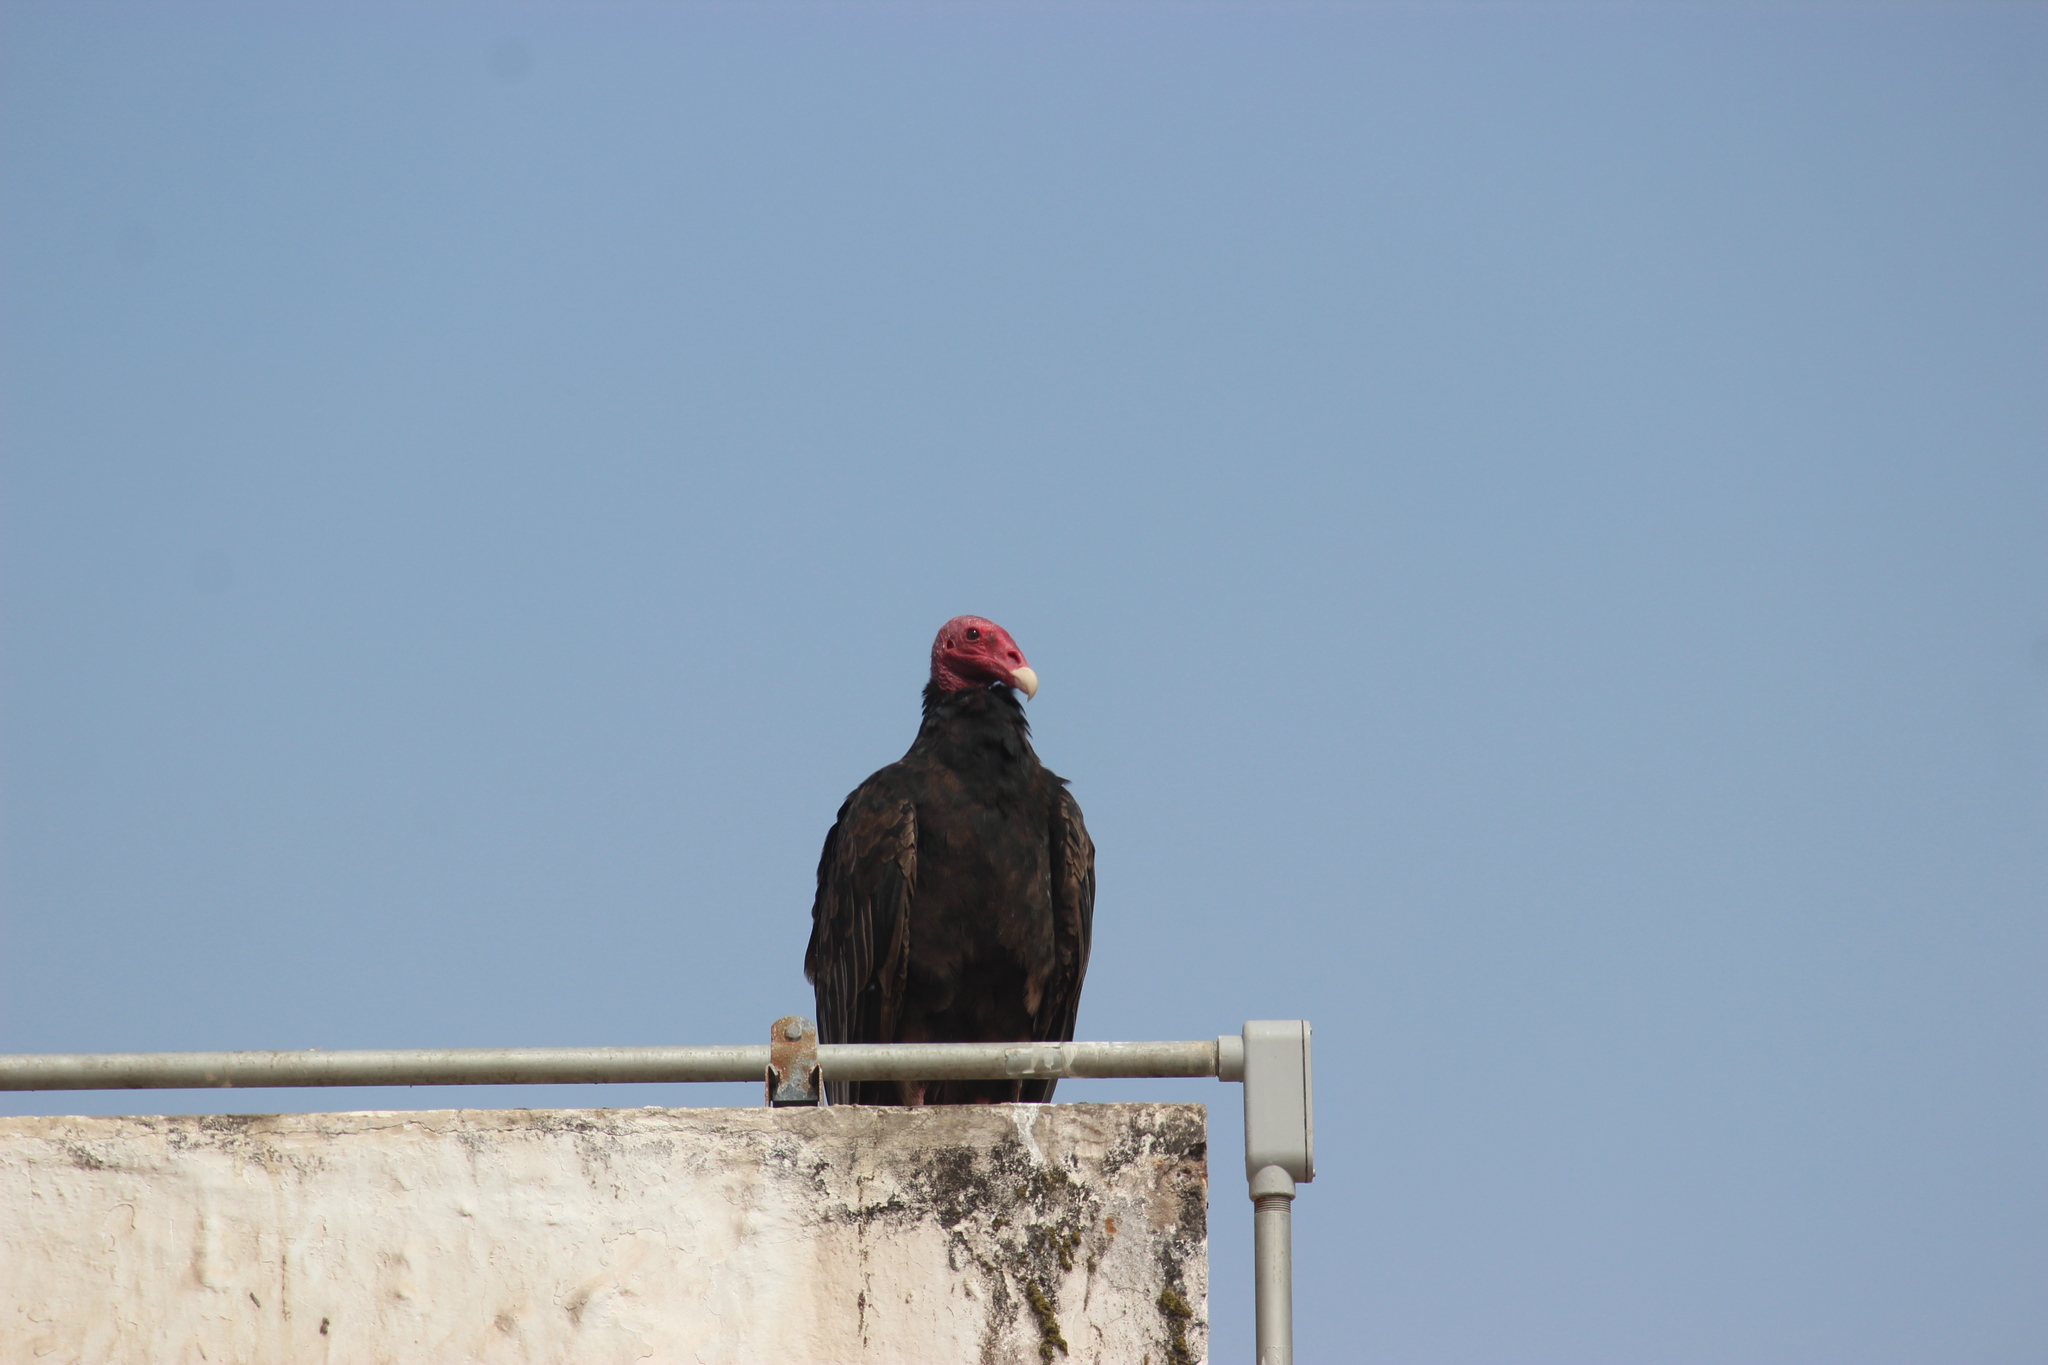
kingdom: Animalia
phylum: Chordata
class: Aves
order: Accipitriformes
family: Cathartidae
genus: Cathartes
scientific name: Cathartes aura
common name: Turkey vulture
